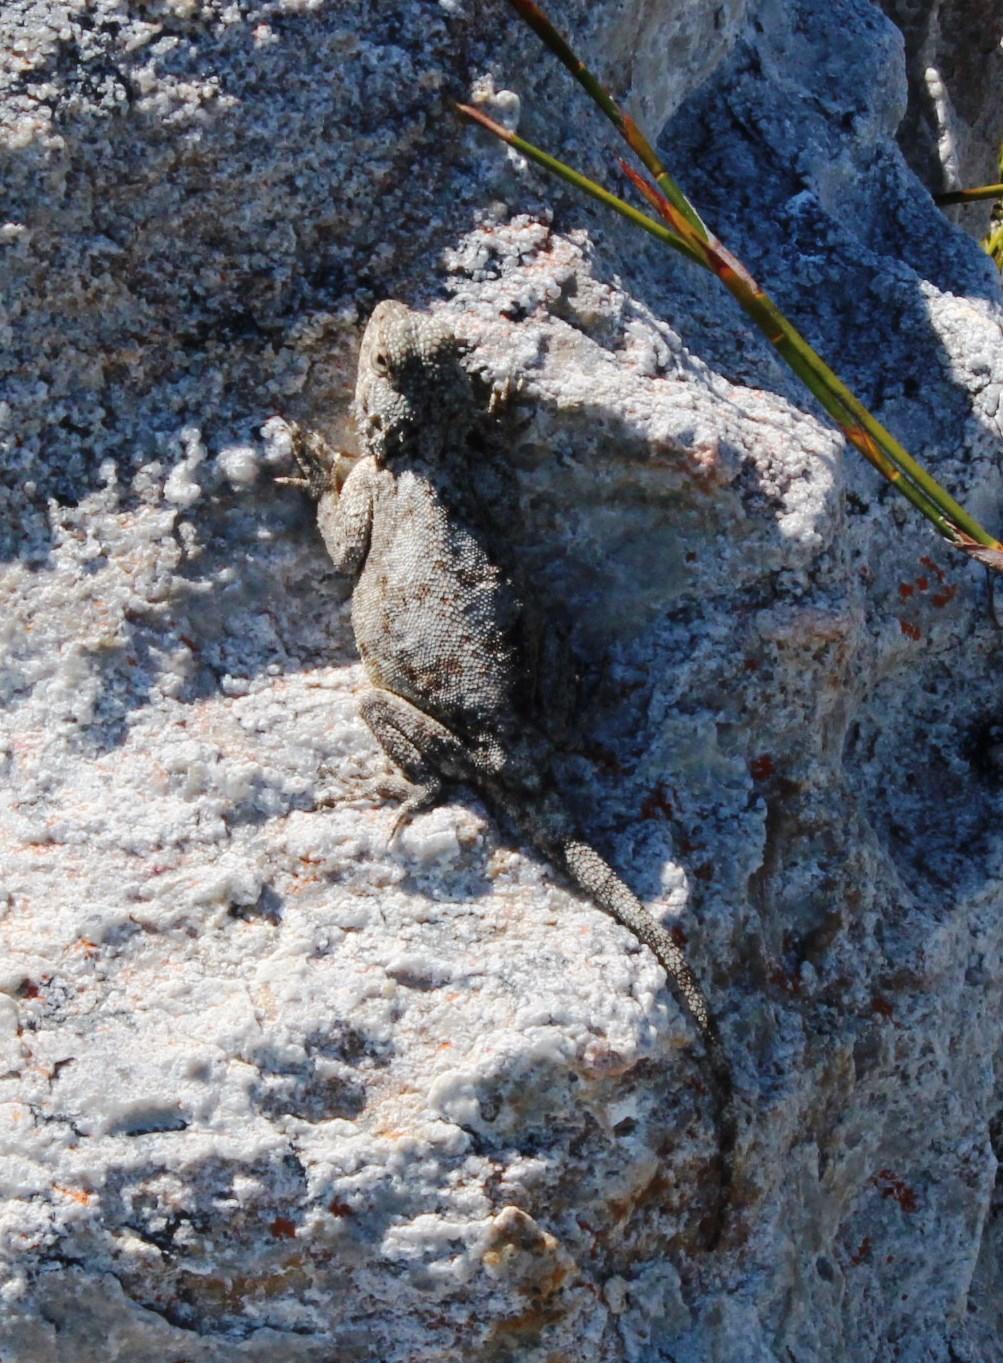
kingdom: Animalia
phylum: Chordata
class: Squamata
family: Agamidae
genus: Agama
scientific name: Agama atra
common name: Southern african rock agama
